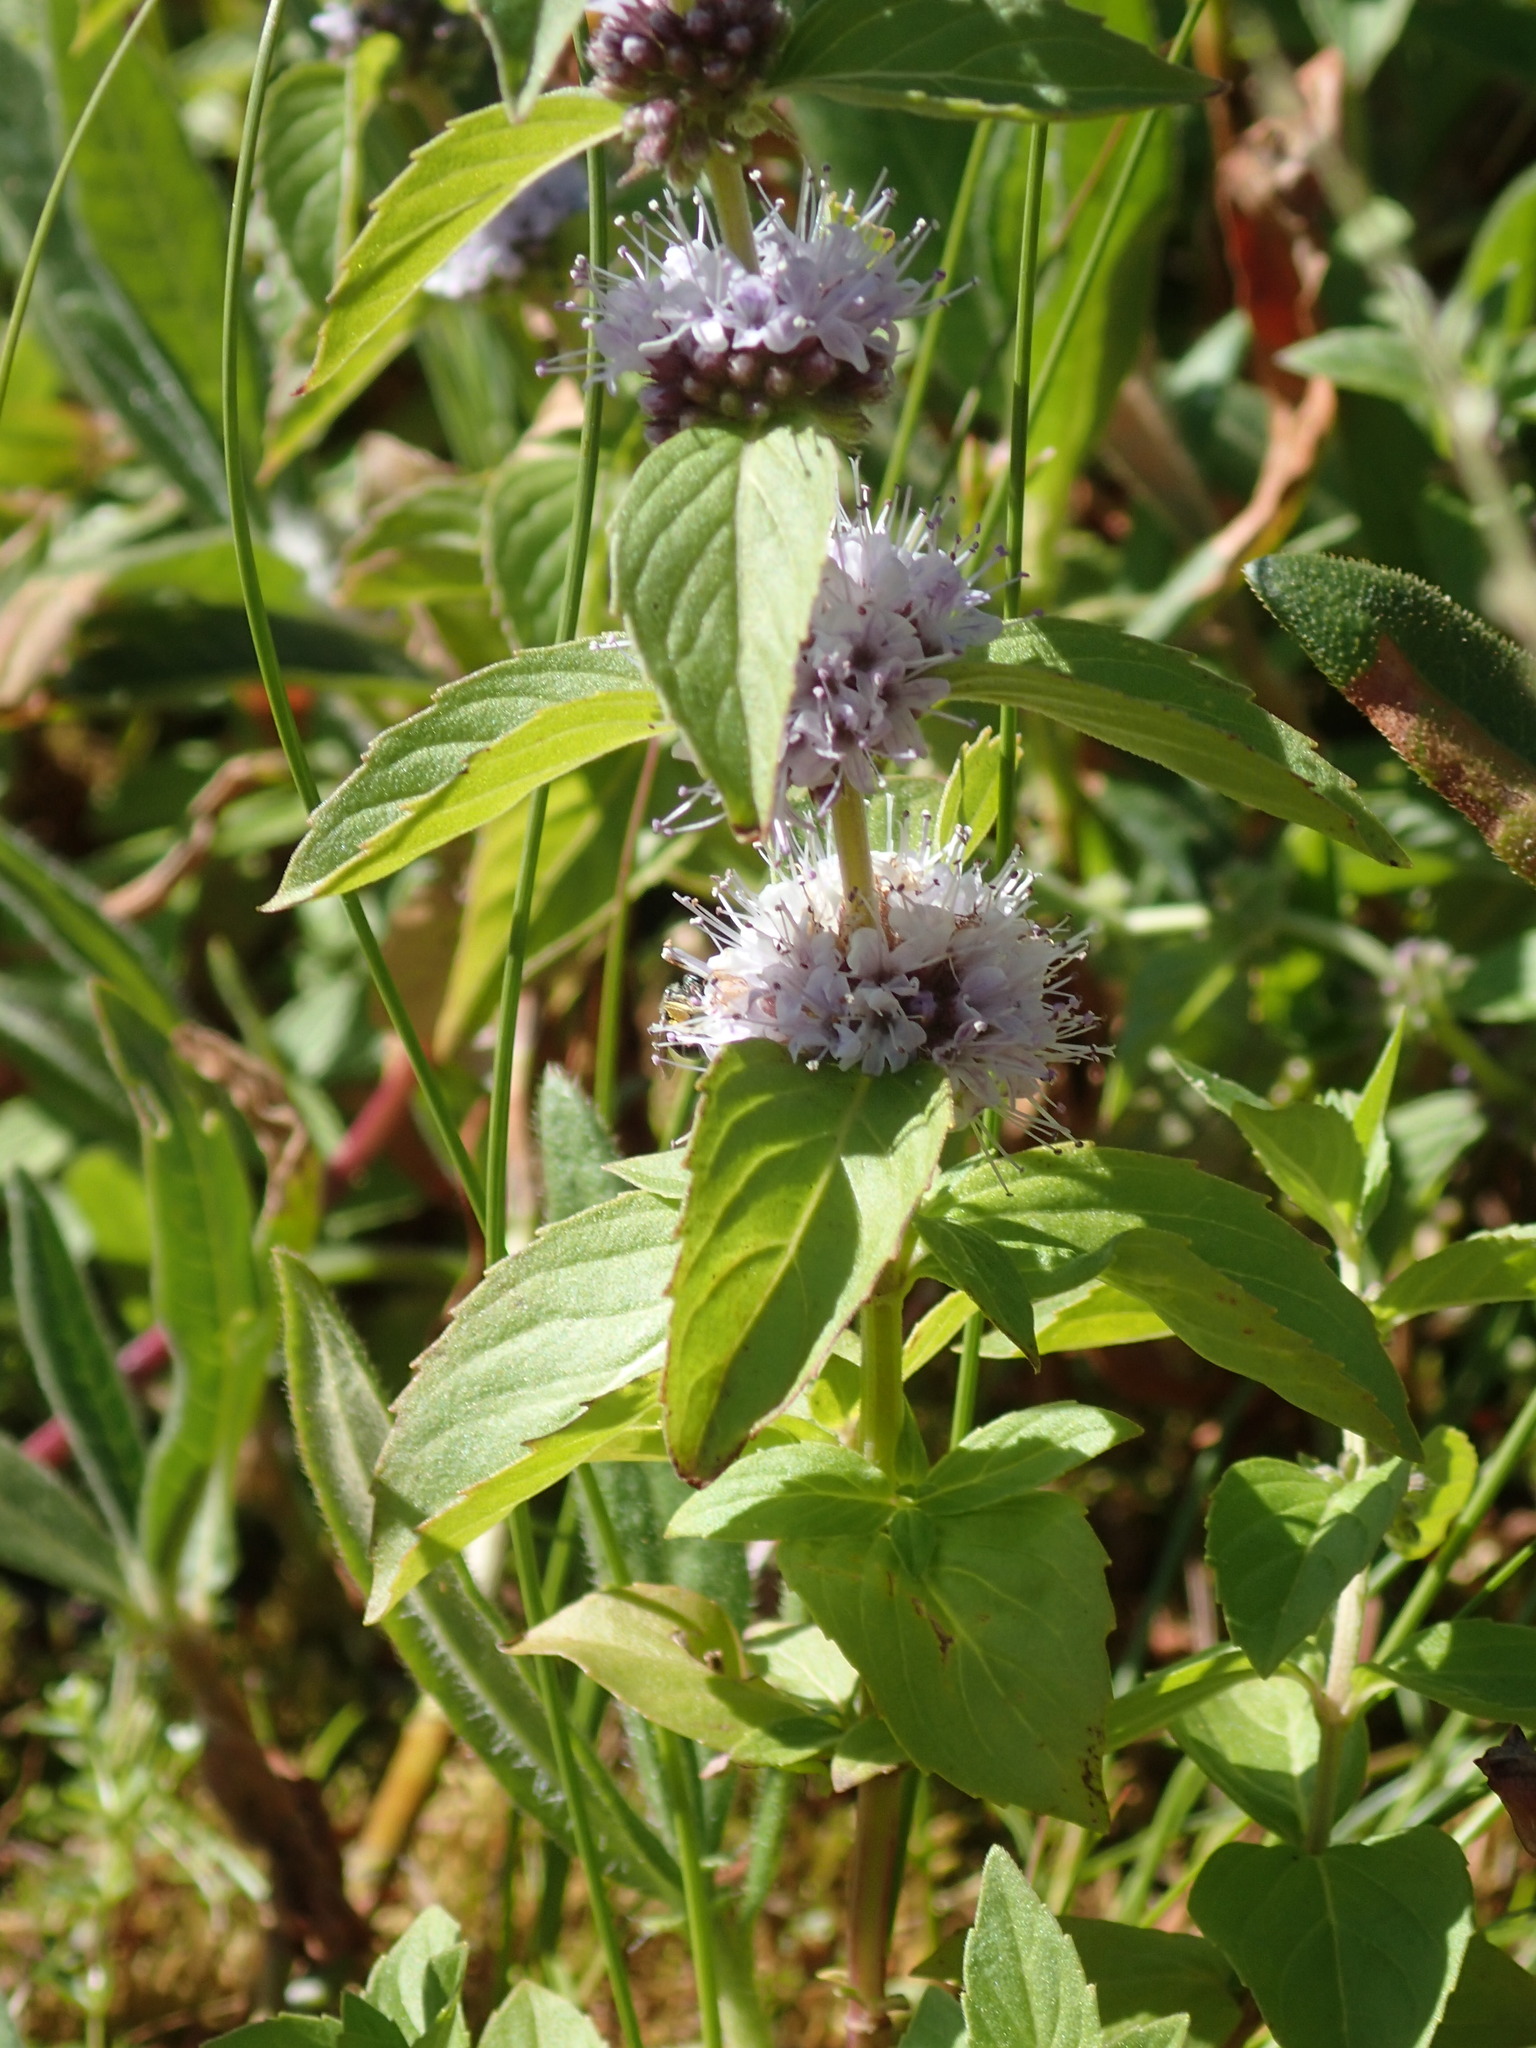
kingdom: Plantae
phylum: Tracheophyta
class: Magnoliopsida
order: Lamiales
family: Lamiaceae
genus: Mentha
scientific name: Mentha canadensis
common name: American corn mint
